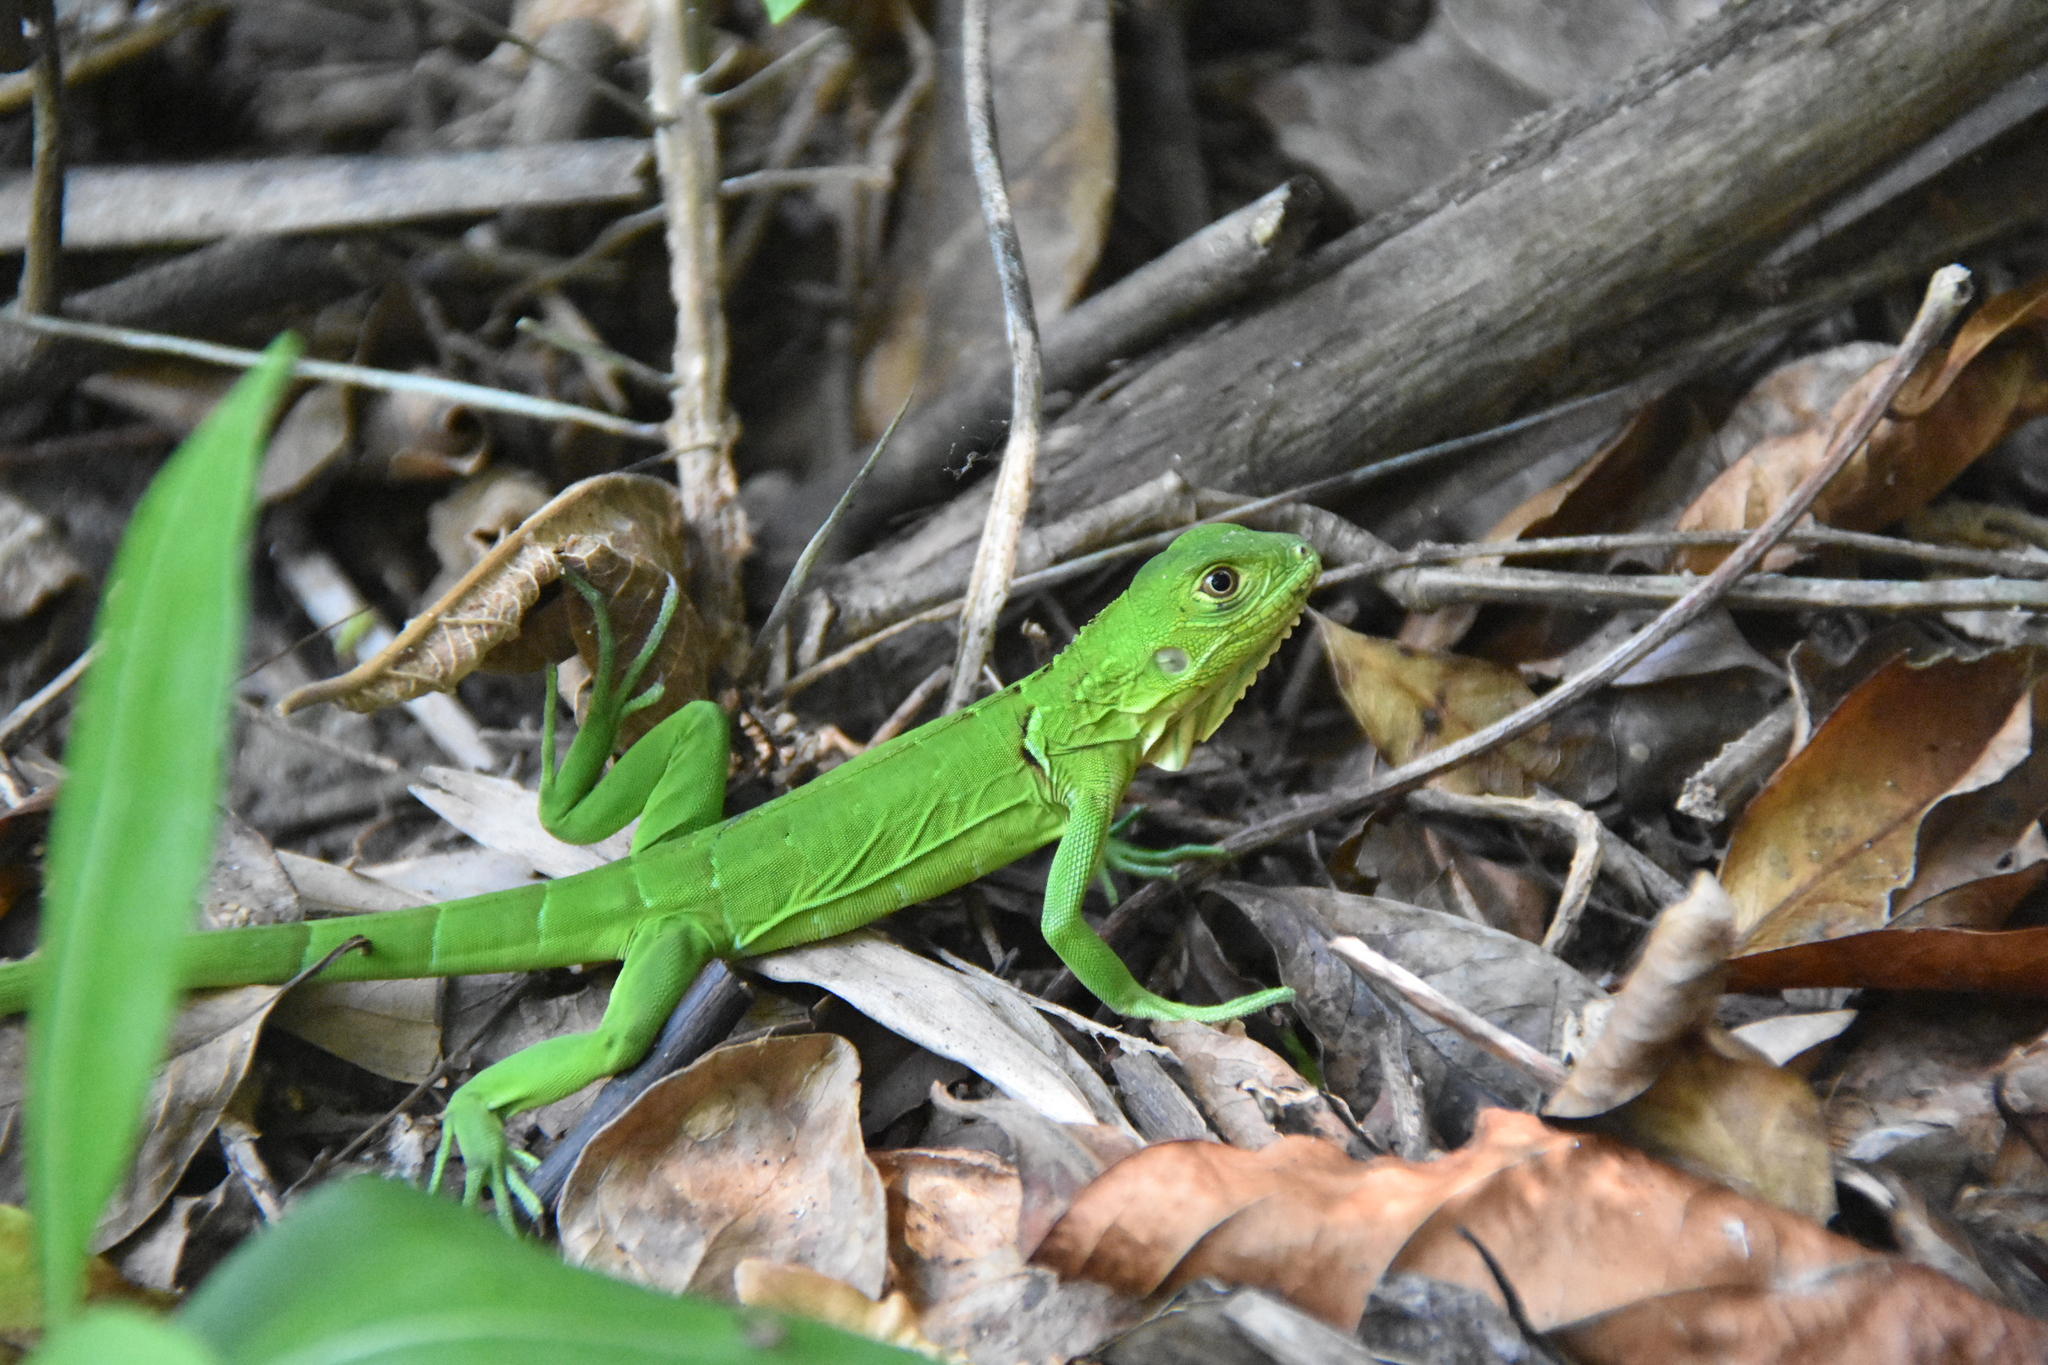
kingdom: Animalia
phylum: Chordata
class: Squamata
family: Iguanidae
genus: Iguana
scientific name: Iguana iguana
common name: Green iguana
